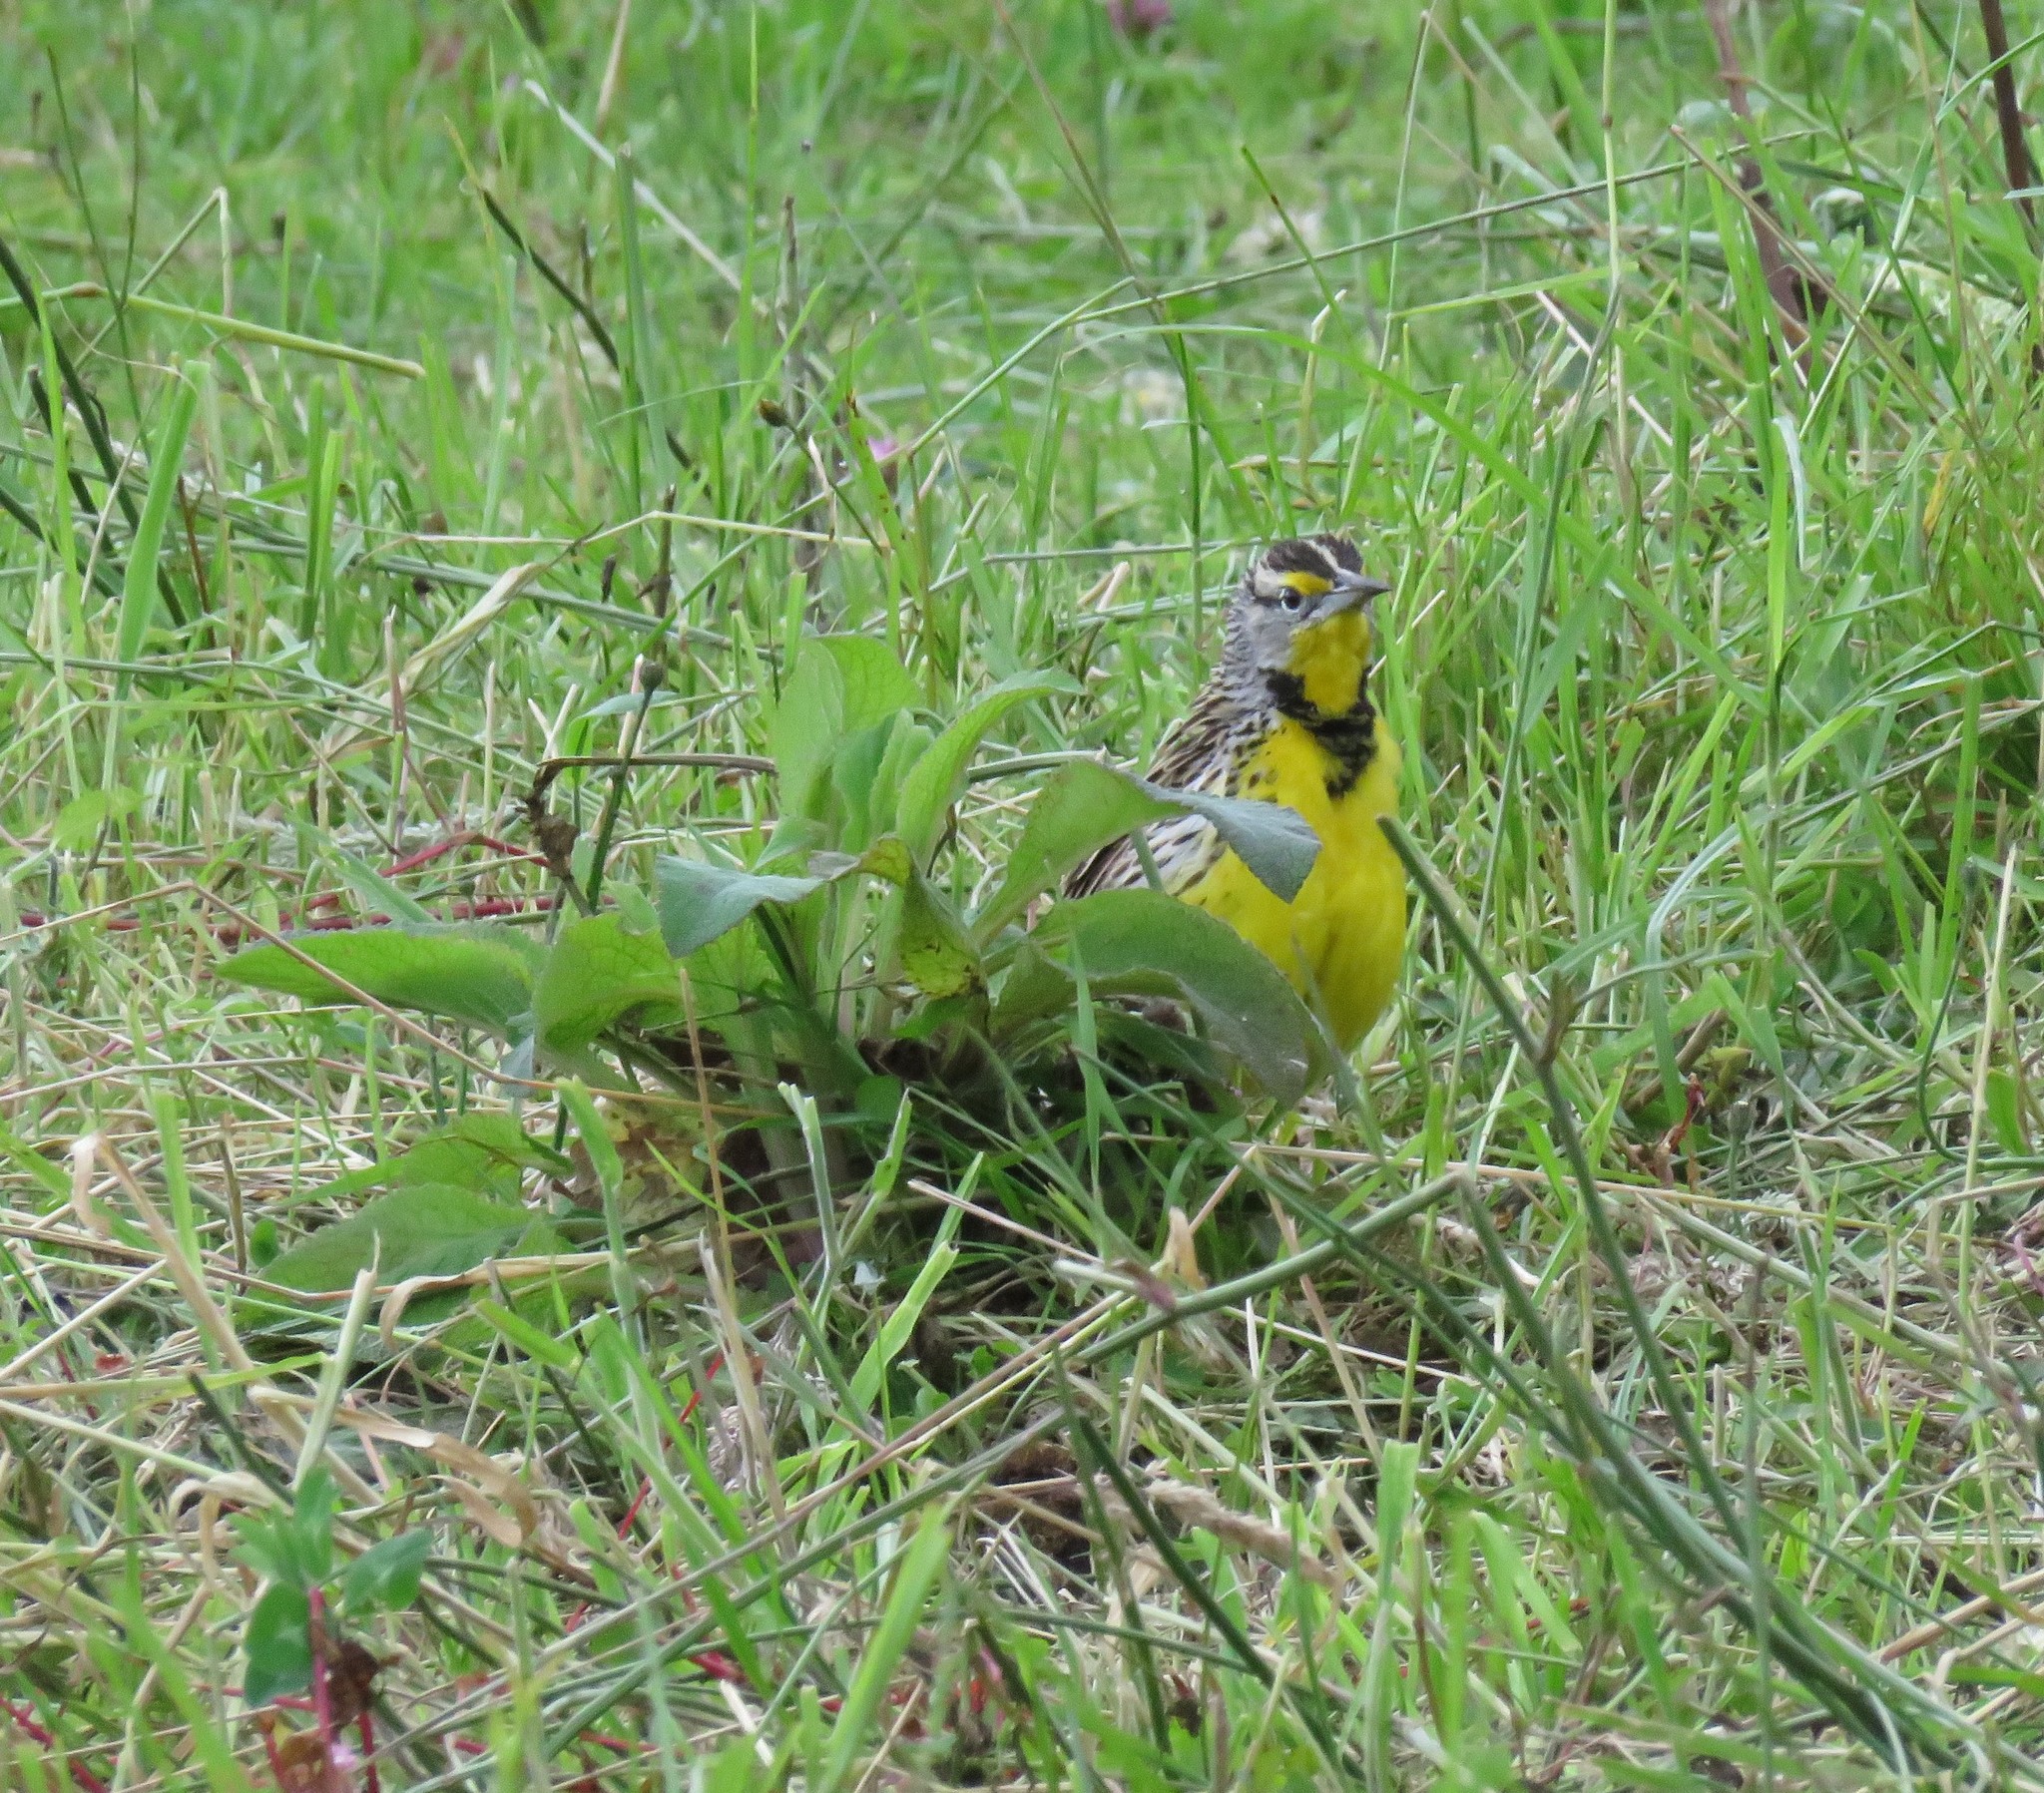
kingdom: Animalia
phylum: Chordata
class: Aves
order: Passeriformes
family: Icteridae
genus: Sturnella
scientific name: Sturnella magna
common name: Eastern meadowlark
